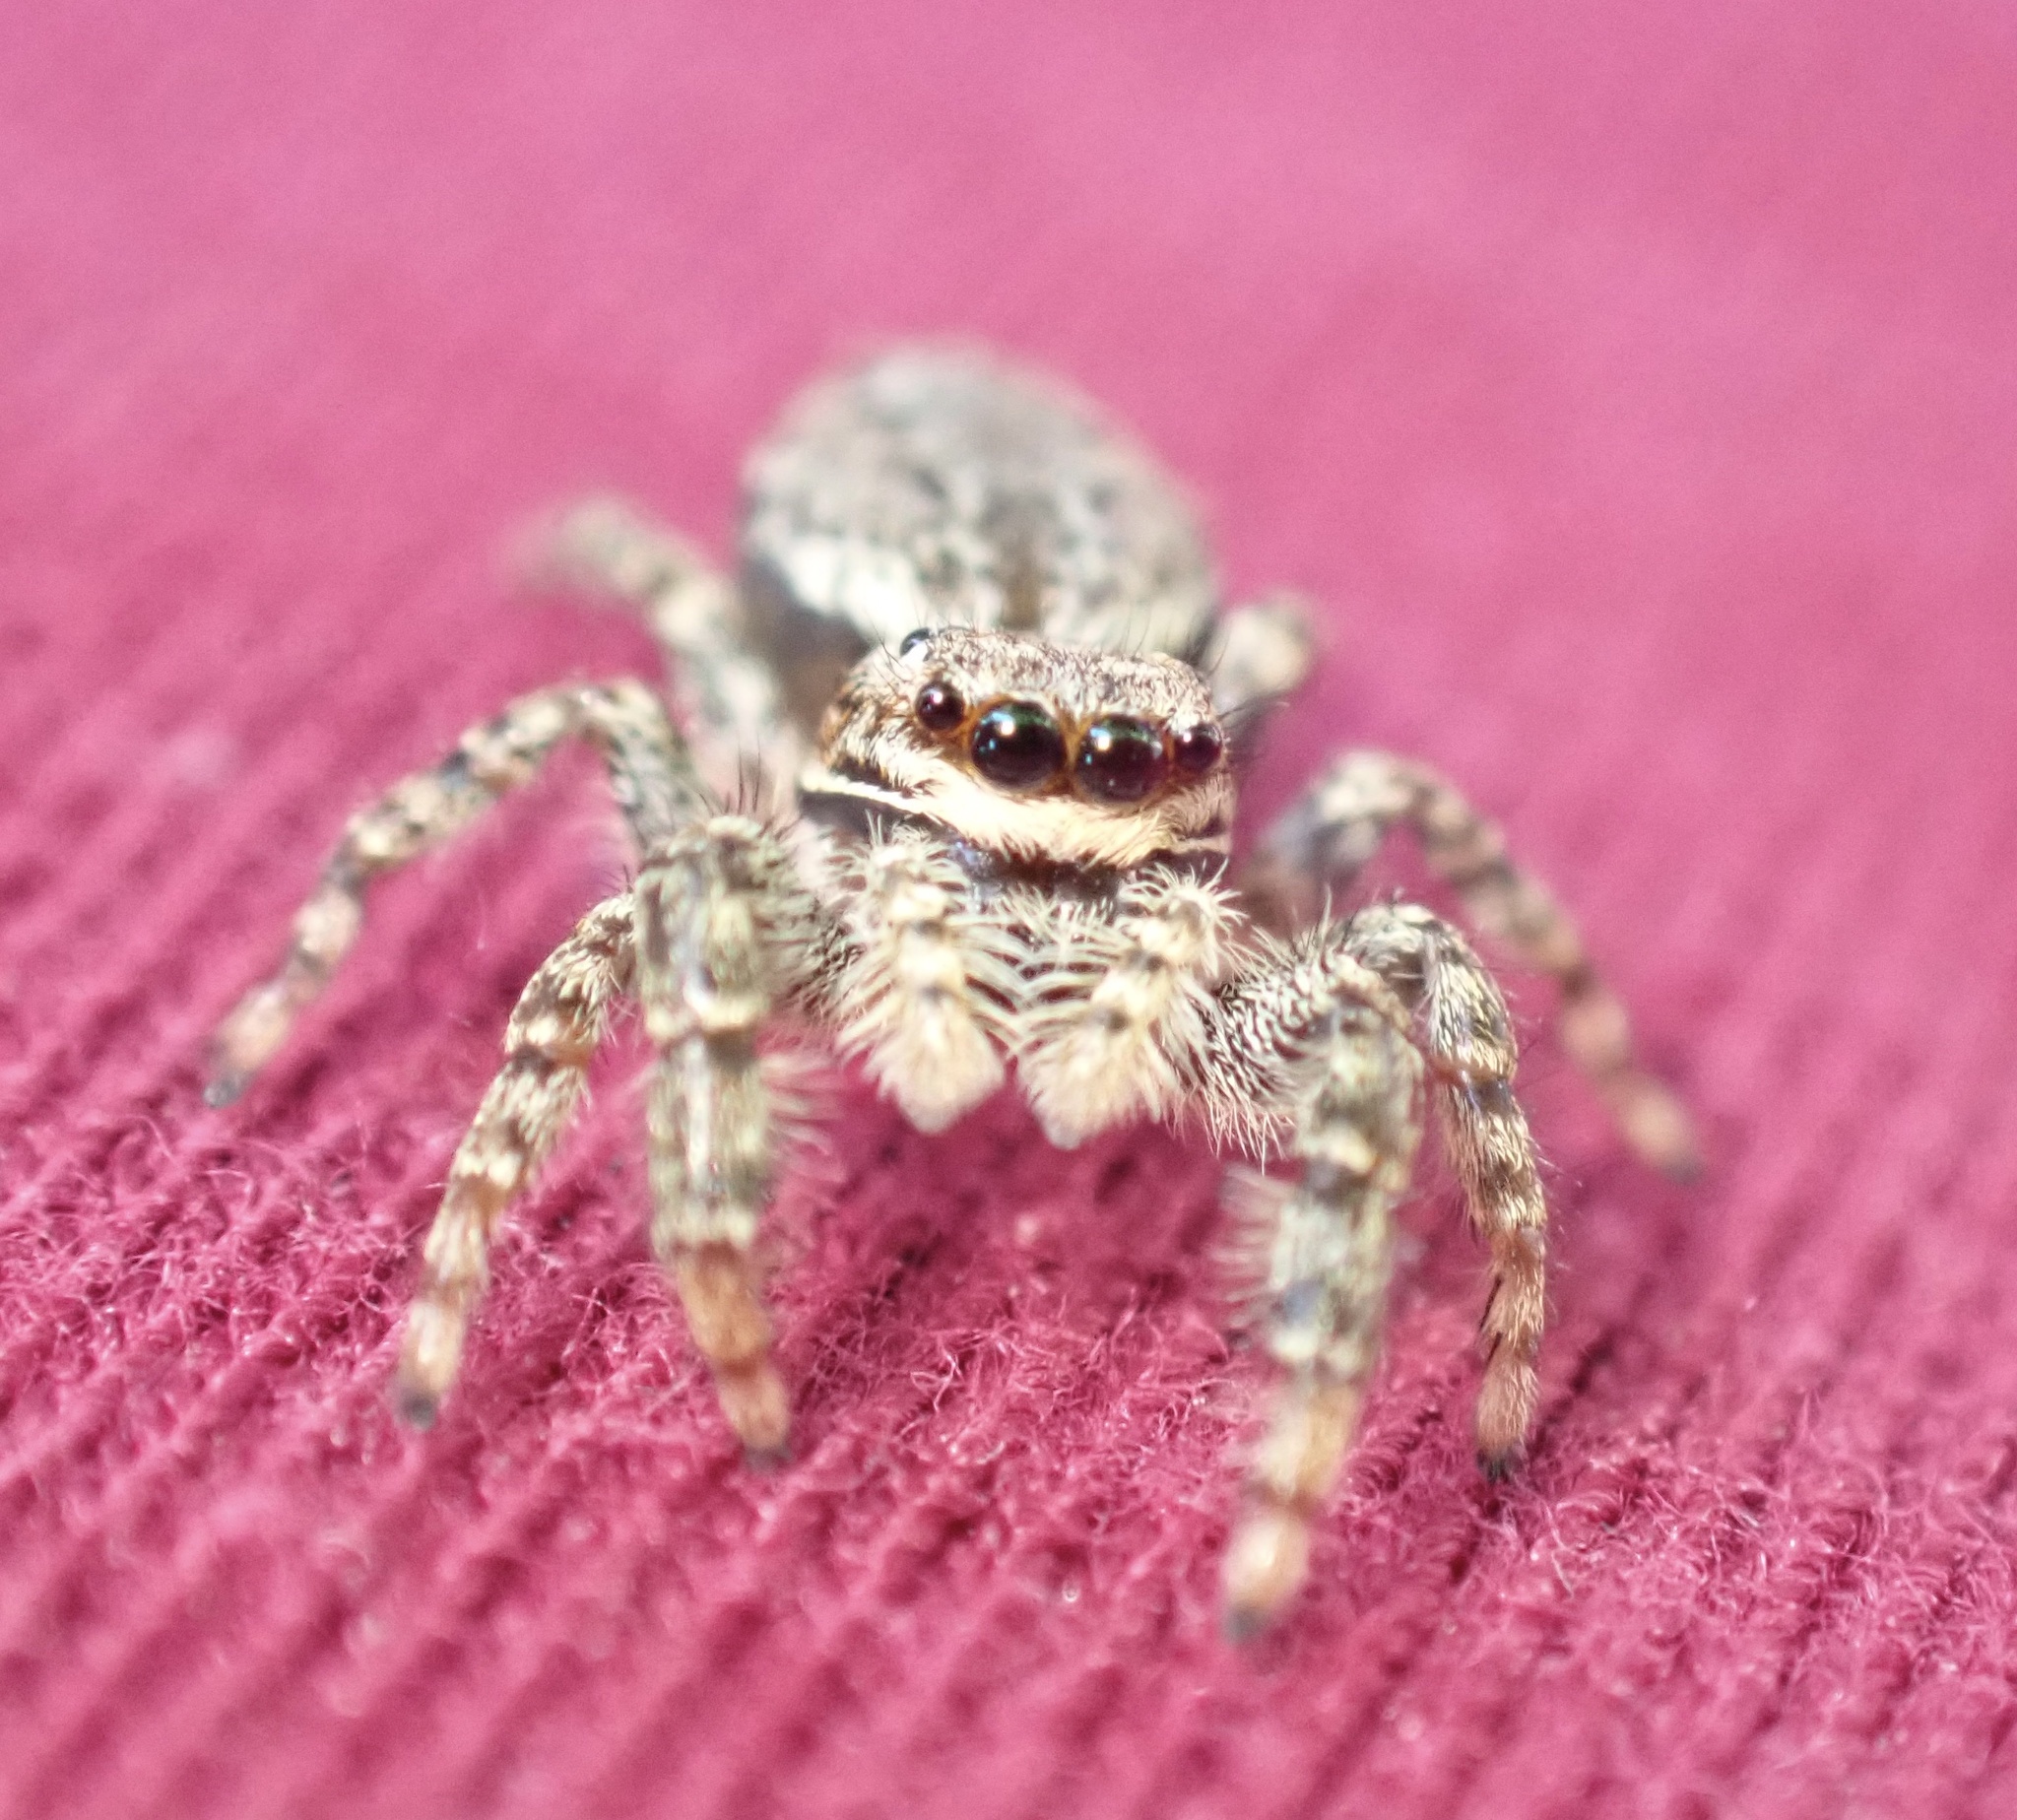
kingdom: Animalia
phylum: Arthropoda
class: Arachnida
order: Araneae
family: Salticidae
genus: Marpissa
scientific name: Marpissa muscosa
